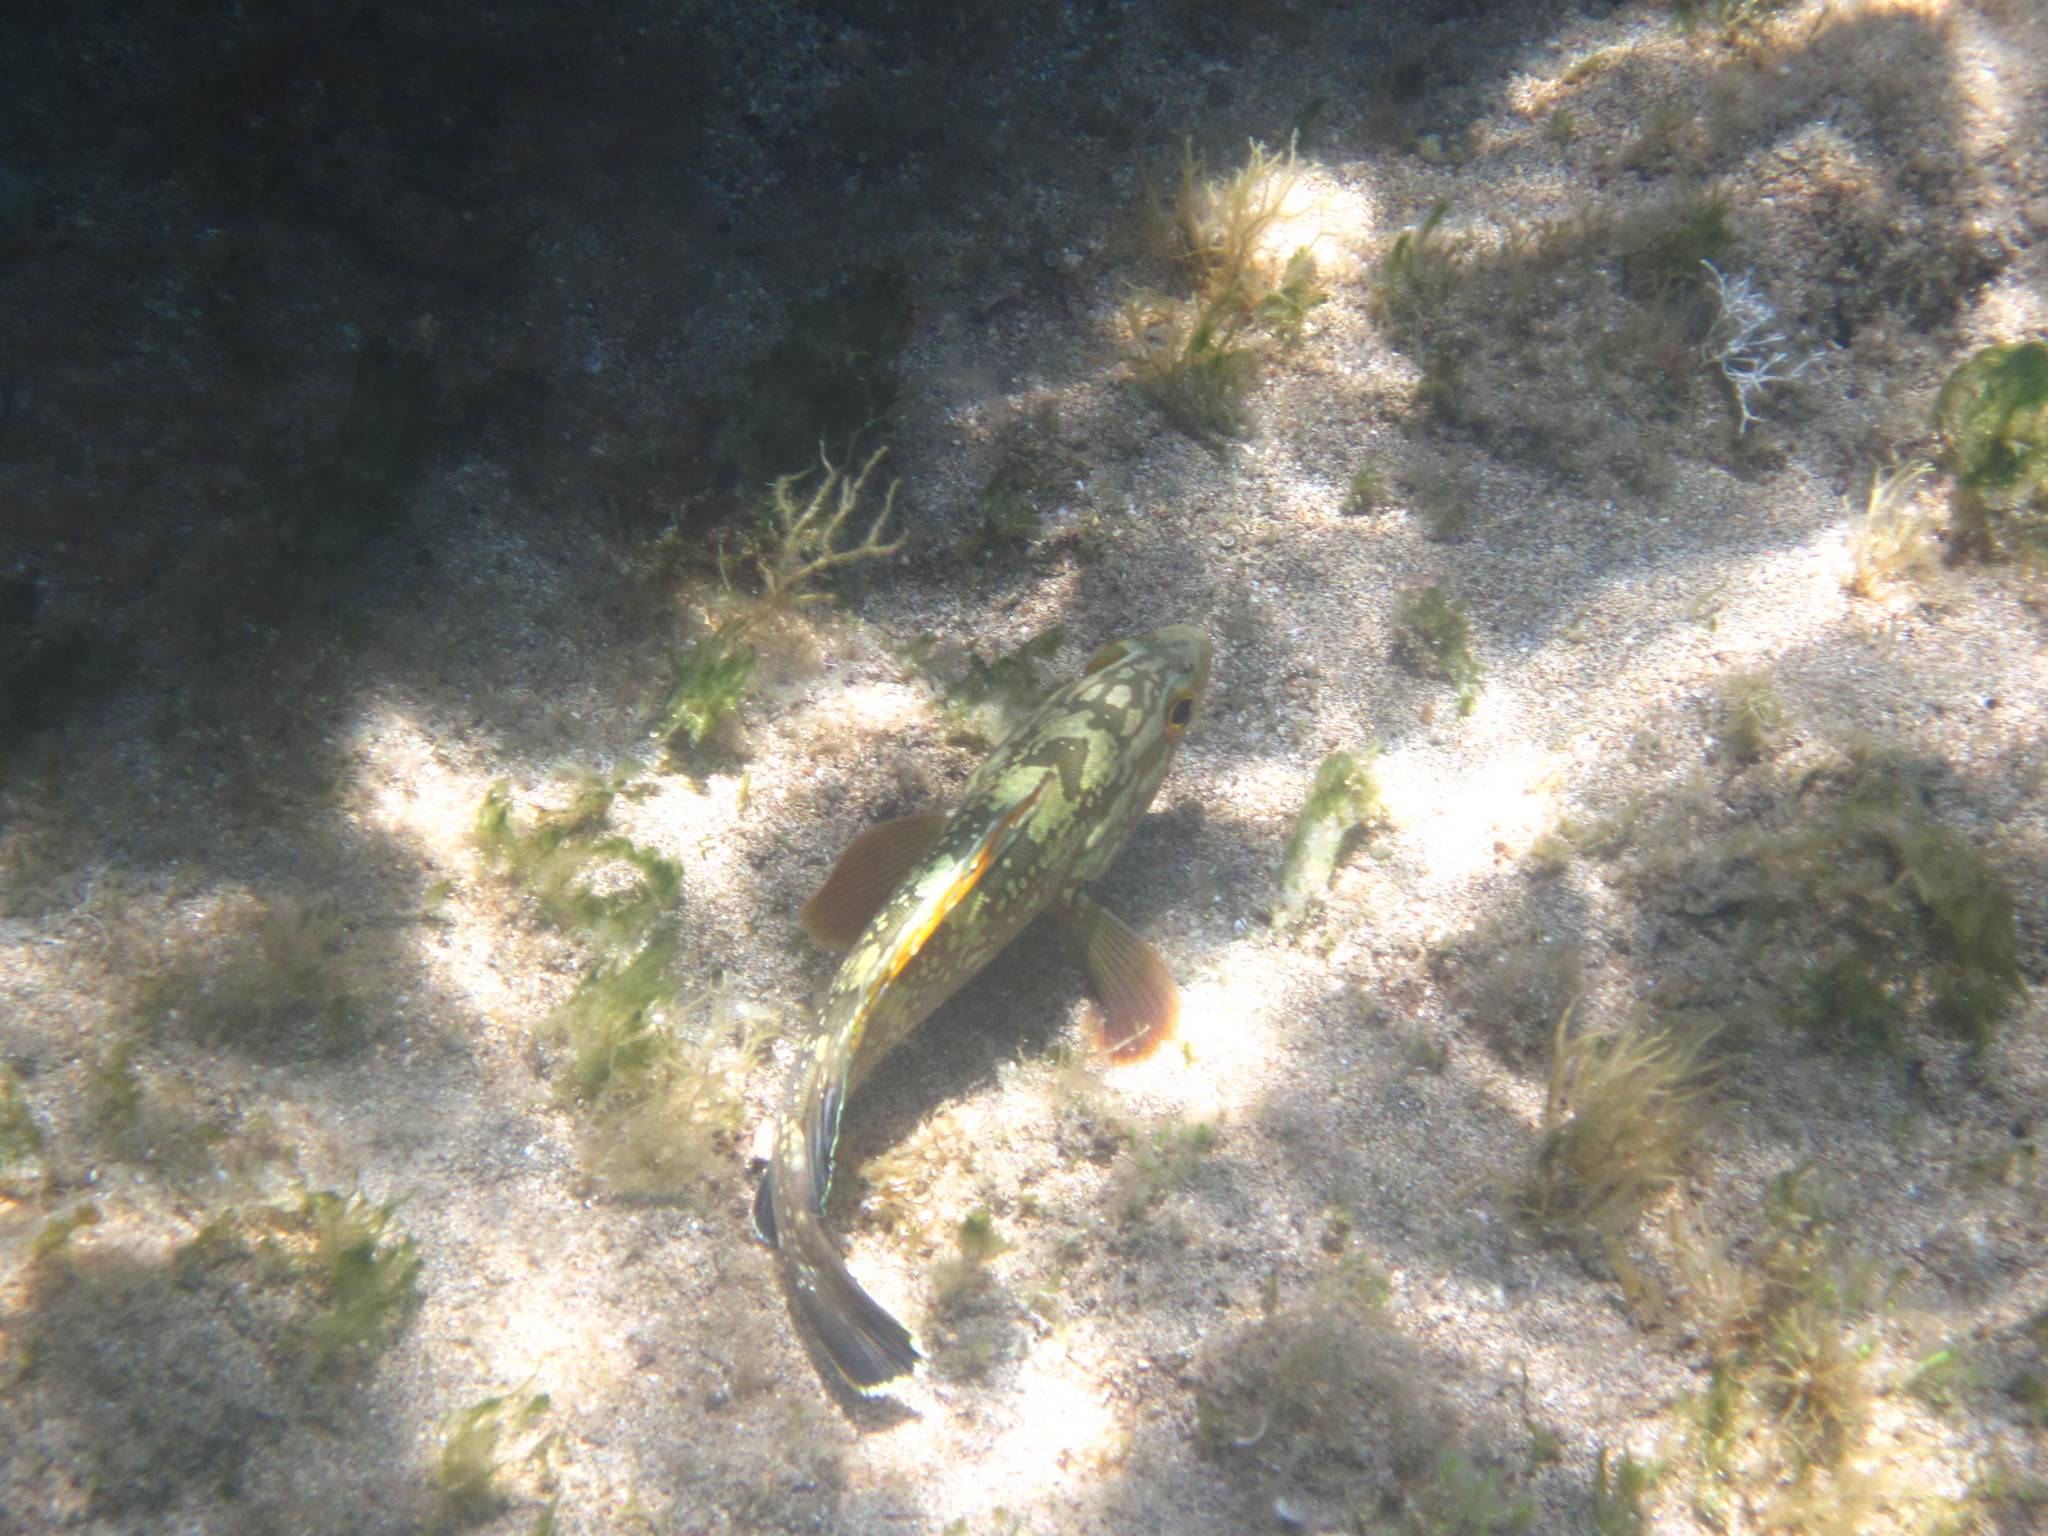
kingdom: Animalia
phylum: Chordata
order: Perciformes
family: Serranidae
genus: Epinephelus
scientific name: Epinephelus marginatus
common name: Dusky grouper
